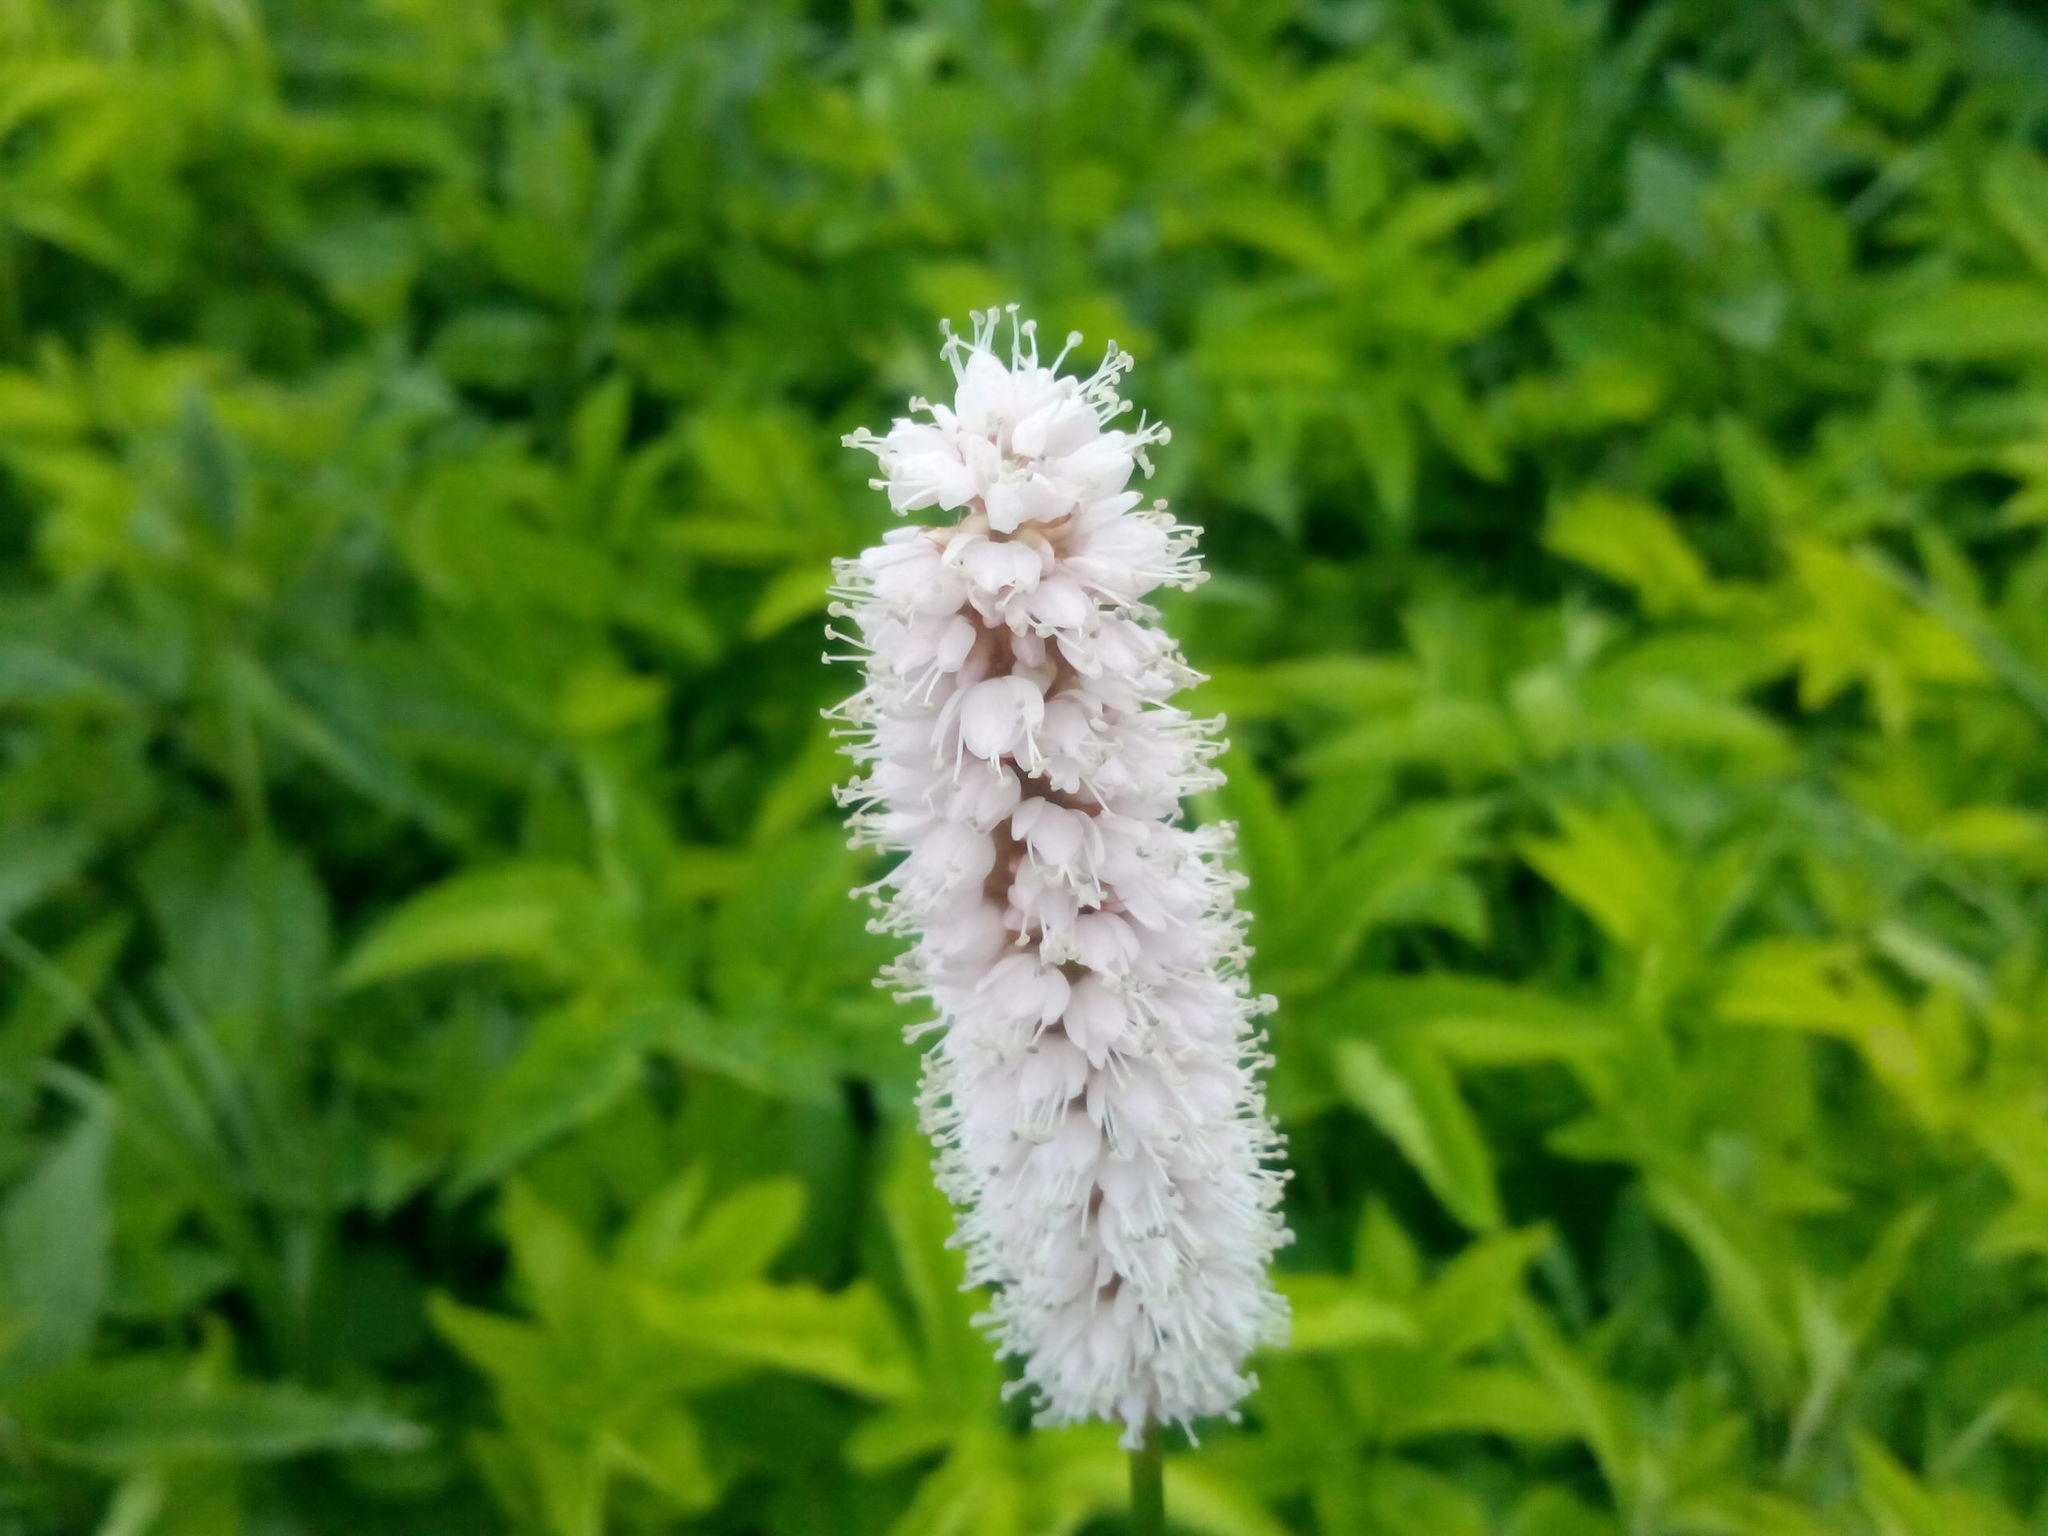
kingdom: Plantae
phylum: Tracheophyta
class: Magnoliopsida
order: Caryophyllales
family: Polygonaceae
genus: Bistorta
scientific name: Bistorta officinalis
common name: Common bistort
